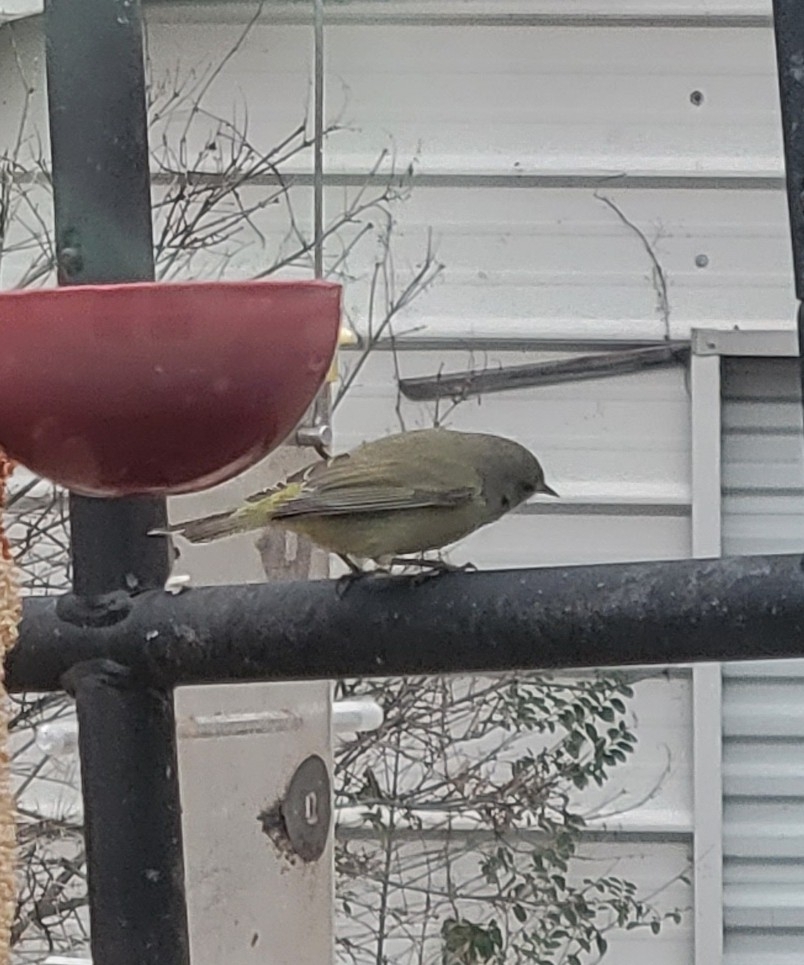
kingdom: Animalia
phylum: Chordata
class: Aves
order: Passeriformes
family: Parulidae
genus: Leiothlypis
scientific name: Leiothlypis celata
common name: Orange-crowned warbler
